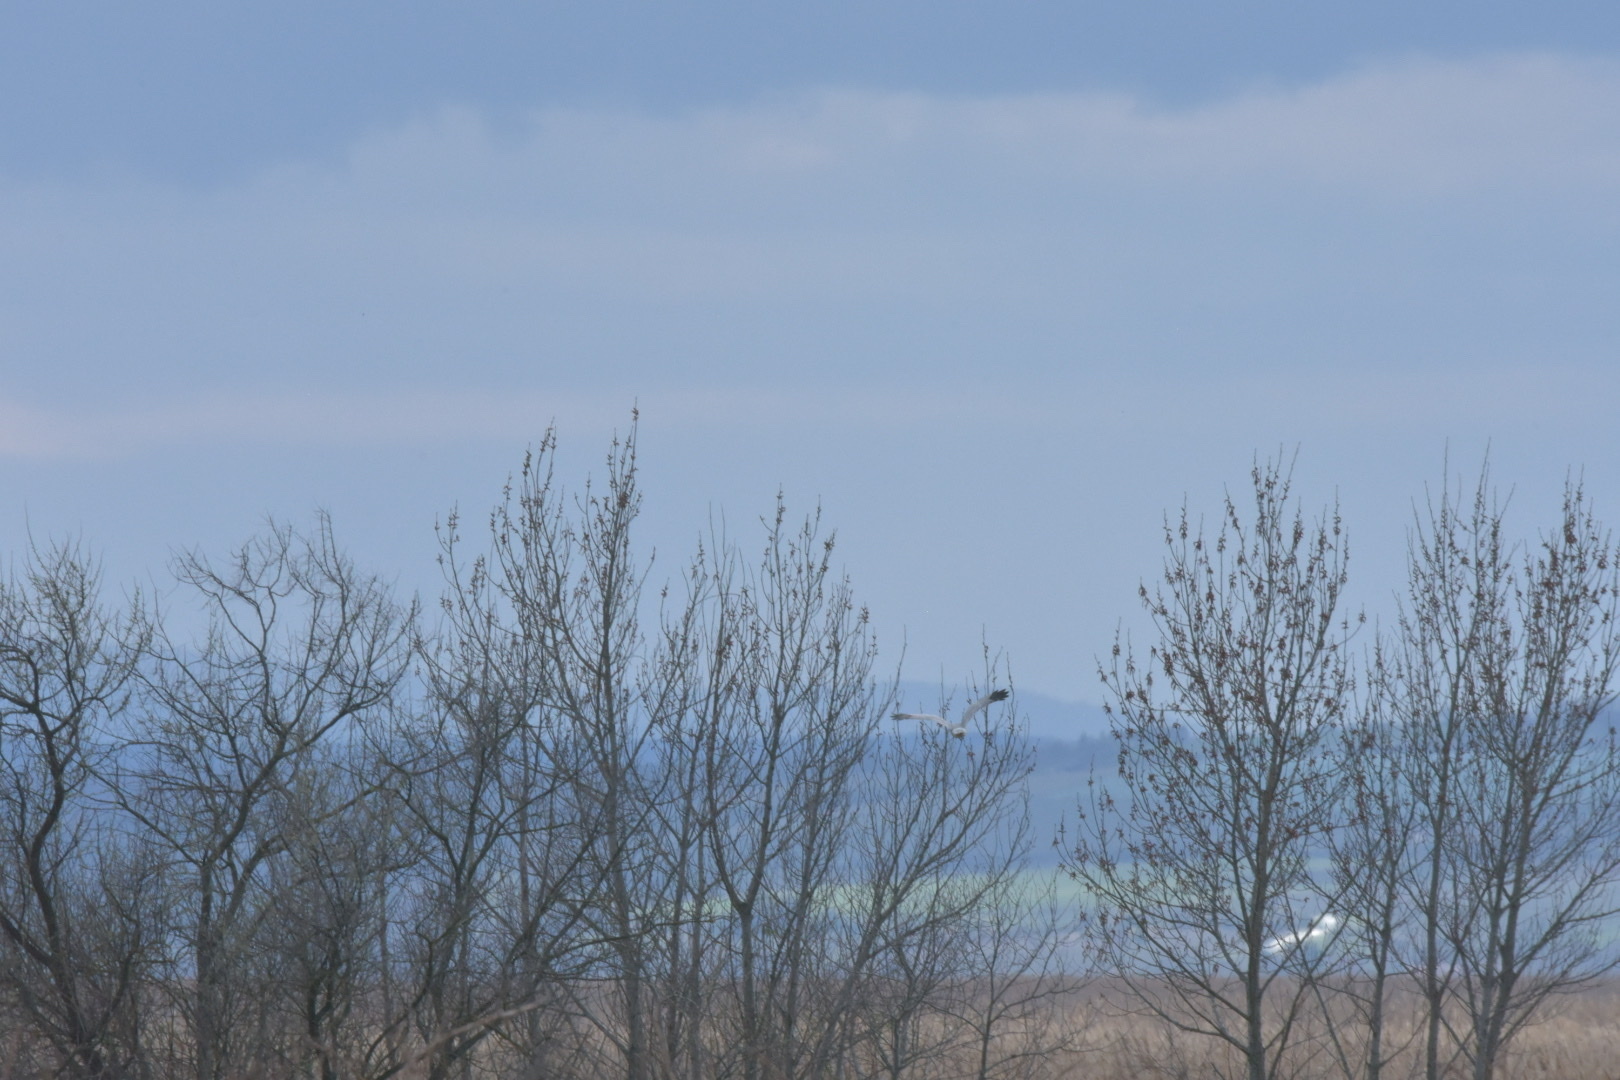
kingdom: Animalia
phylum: Chordata
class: Aves
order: Accipitriformes
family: Accipitridae
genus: Circus
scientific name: Circus cyaneus
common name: Hen harrier
